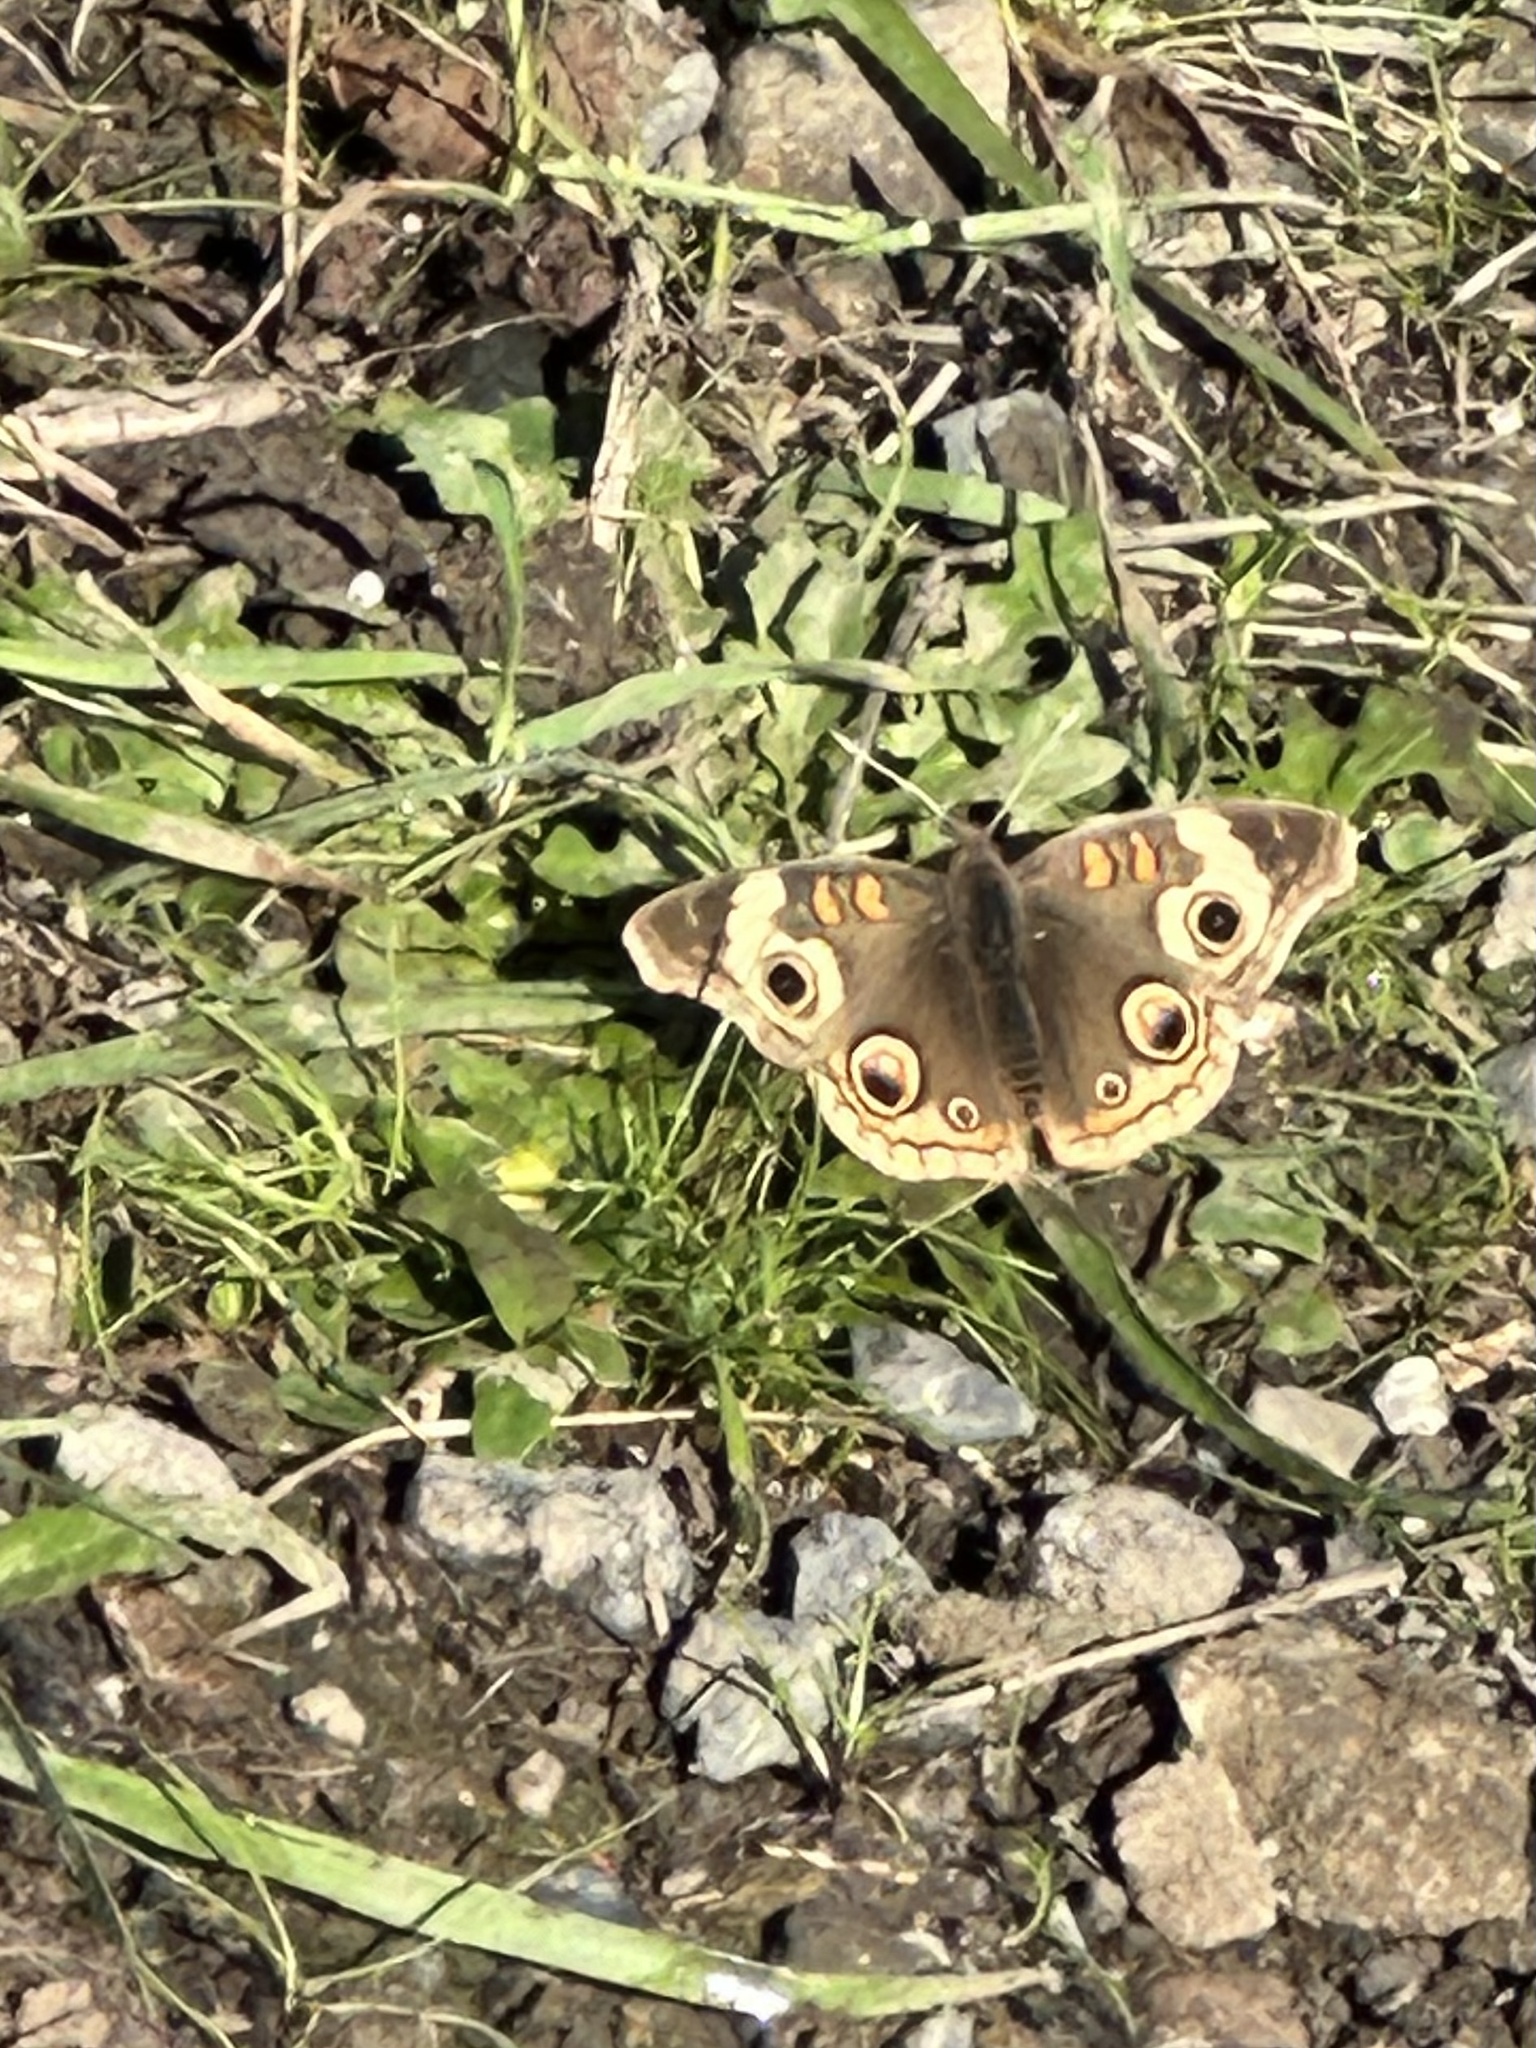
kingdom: Animalia
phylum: Arthropoda
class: Insecta
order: Lepidoptera
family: Nymphalidae
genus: Junonia
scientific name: Junonia grisea
